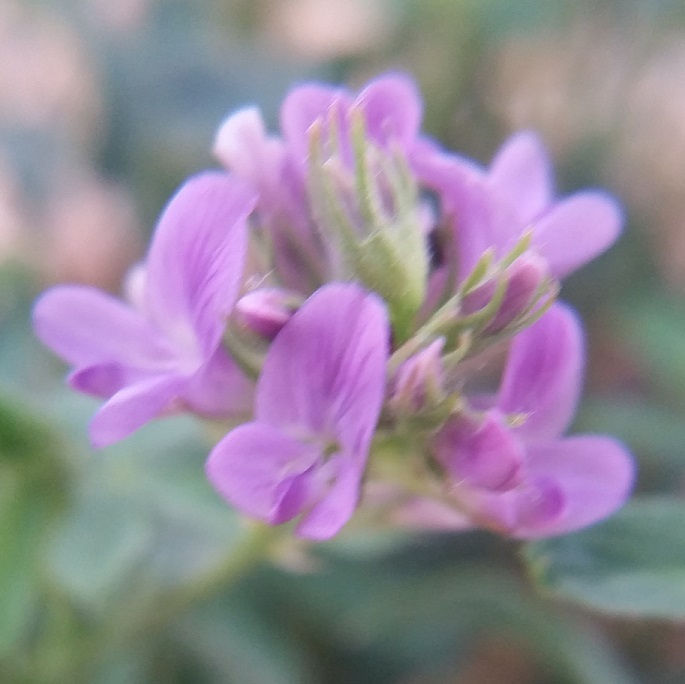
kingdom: Plantae
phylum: Tracheophyta
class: Magnoliopsida
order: Fabales
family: Fabaceae
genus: Medicago
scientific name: Medicago sativa
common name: Alfalfa
